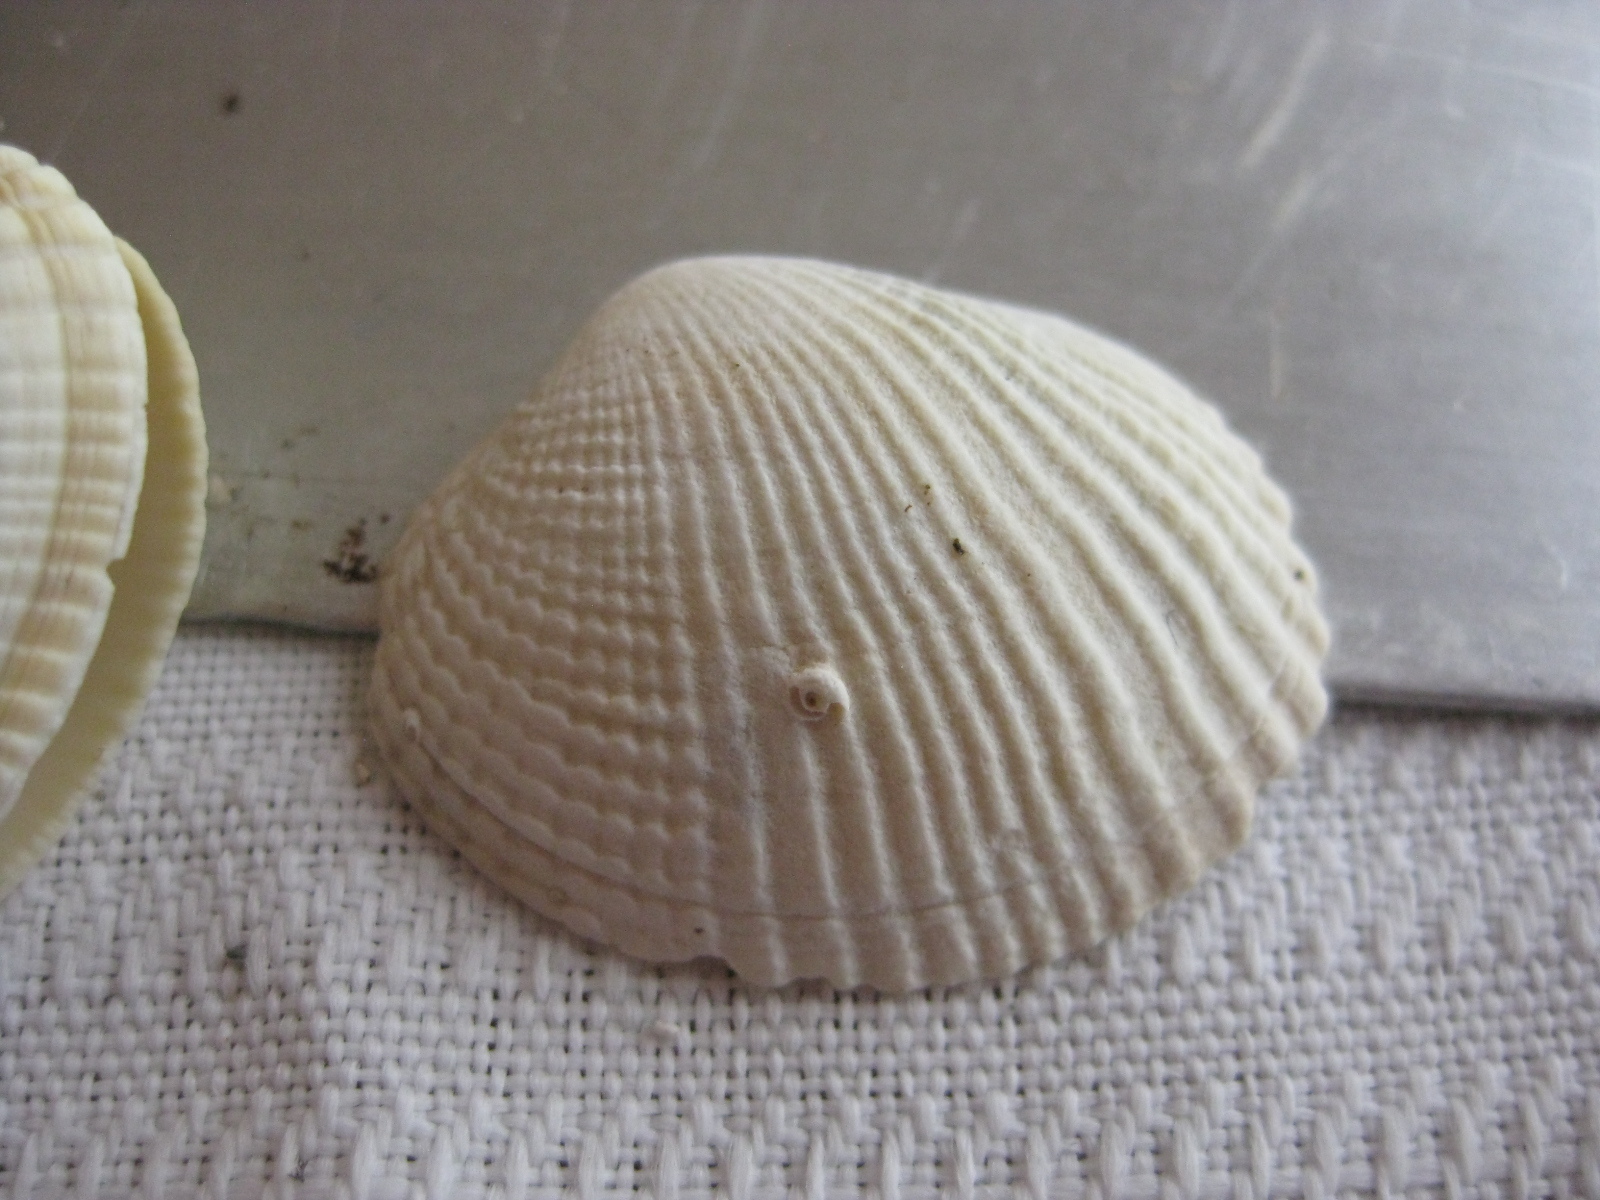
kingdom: Animalia
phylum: Mollusca
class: Bivalvia
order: Venerida
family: Veneridae
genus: Leukoma
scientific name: Leukoma crassicosta
